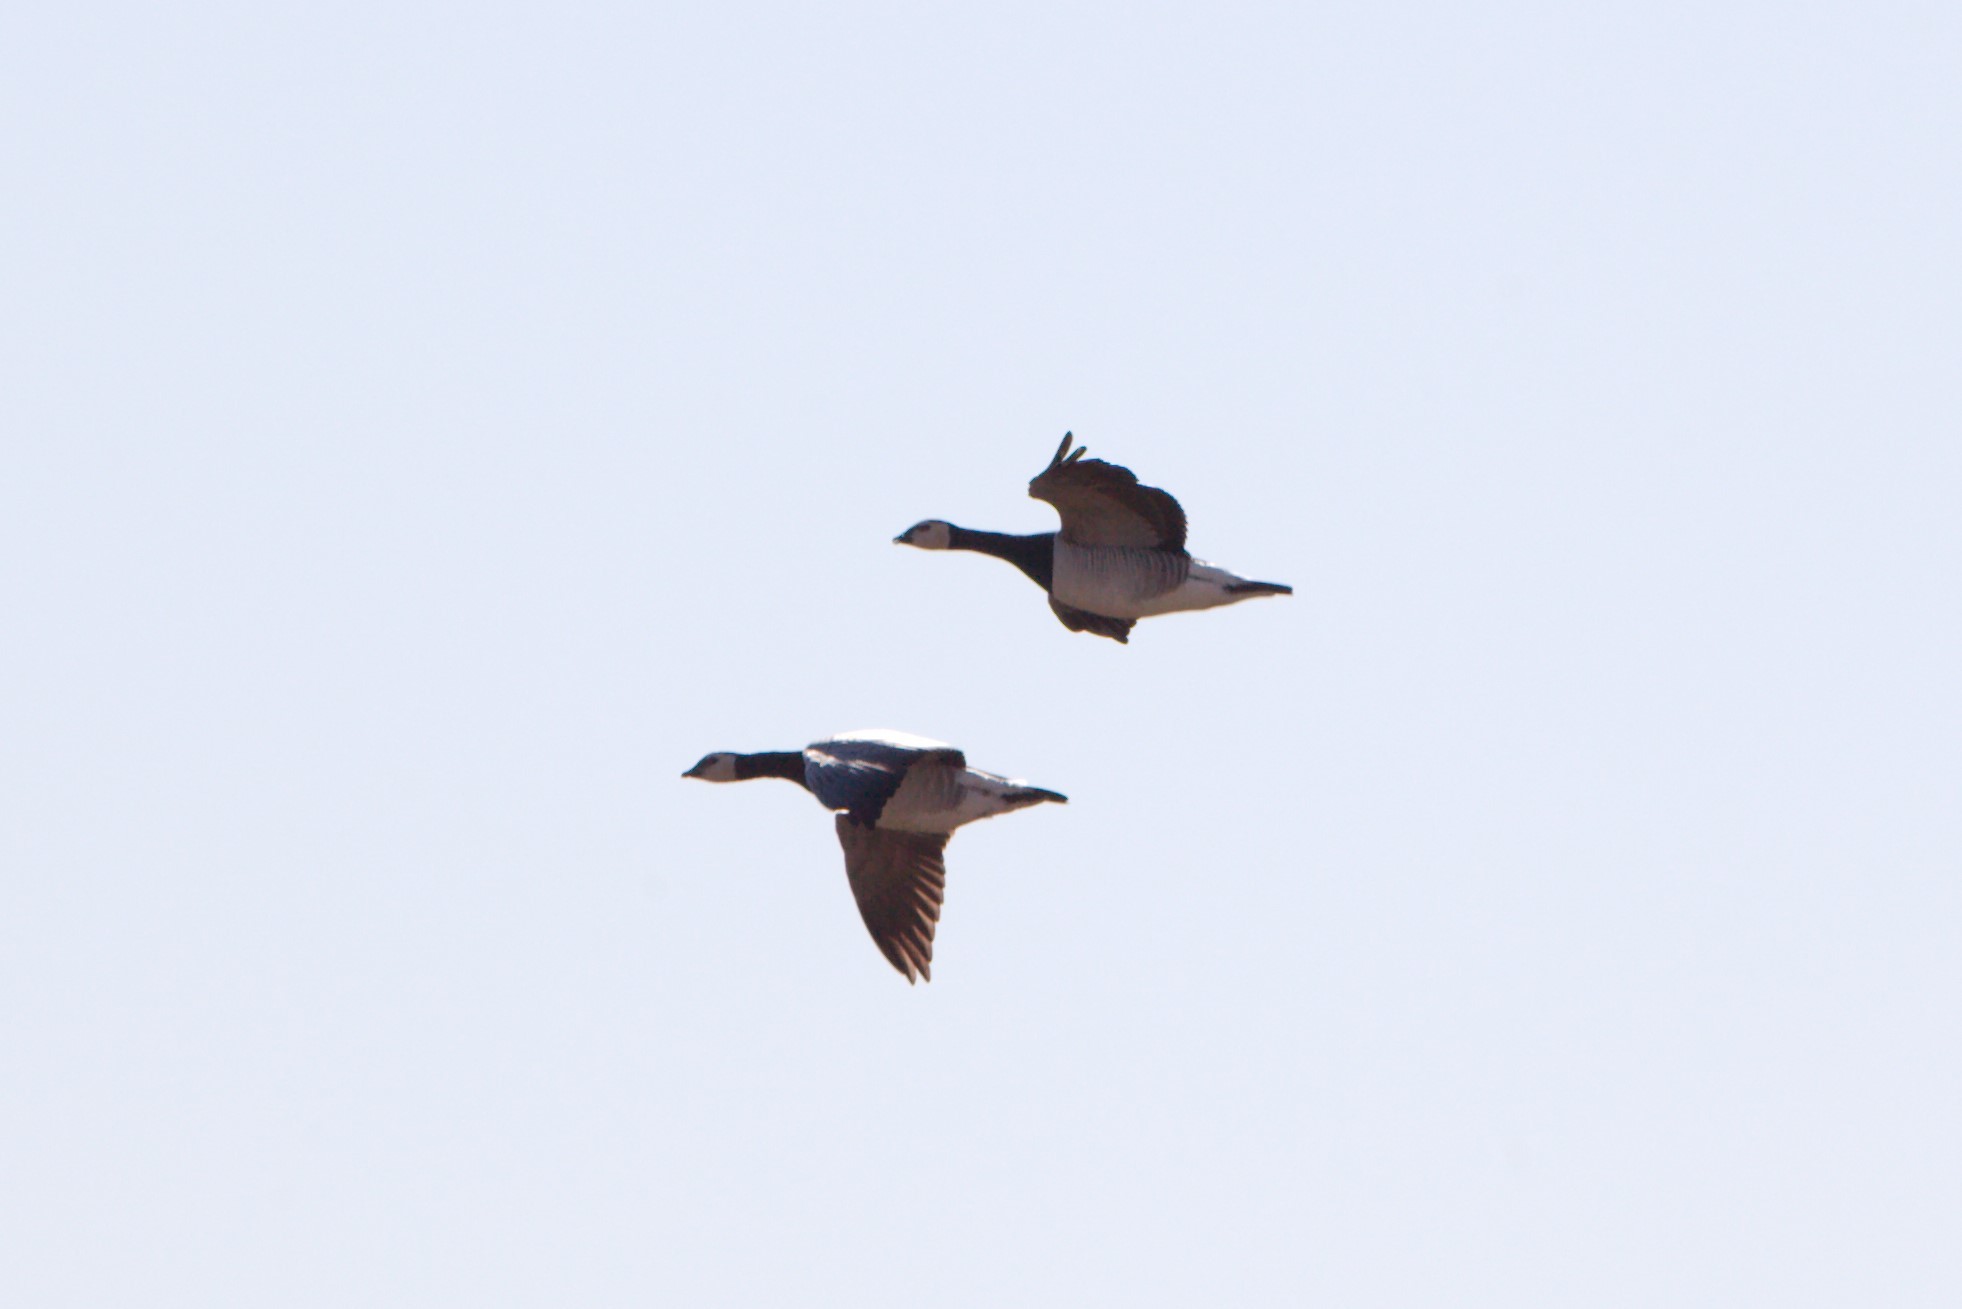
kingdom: Animalia
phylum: Chordata
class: Aves
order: Anseriformes
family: Anatidae
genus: Branta
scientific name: Branta leucopsis
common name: Barnacle goose
